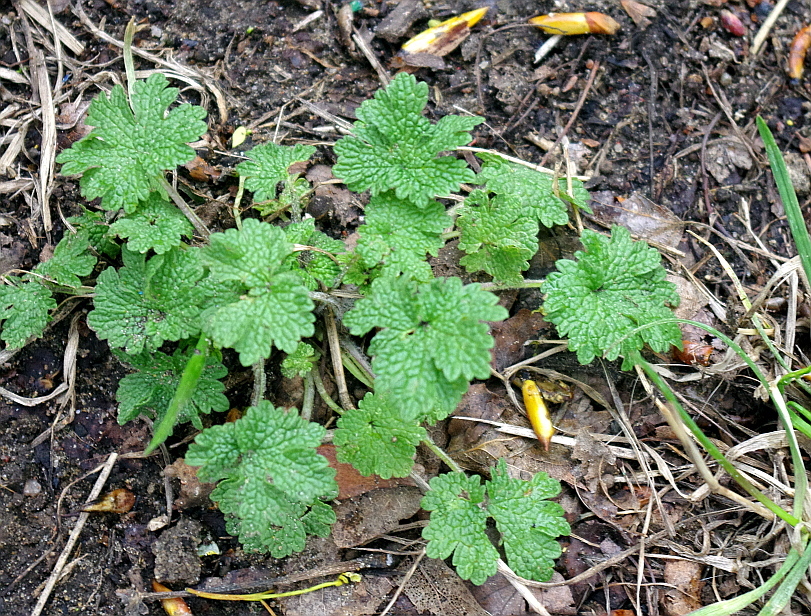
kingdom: Plantae
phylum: Tracheophyta
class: Magnoliopsida
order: Lamiales
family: Lamiaceae
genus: Leonurus
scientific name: Leonurus quinquelobatus
